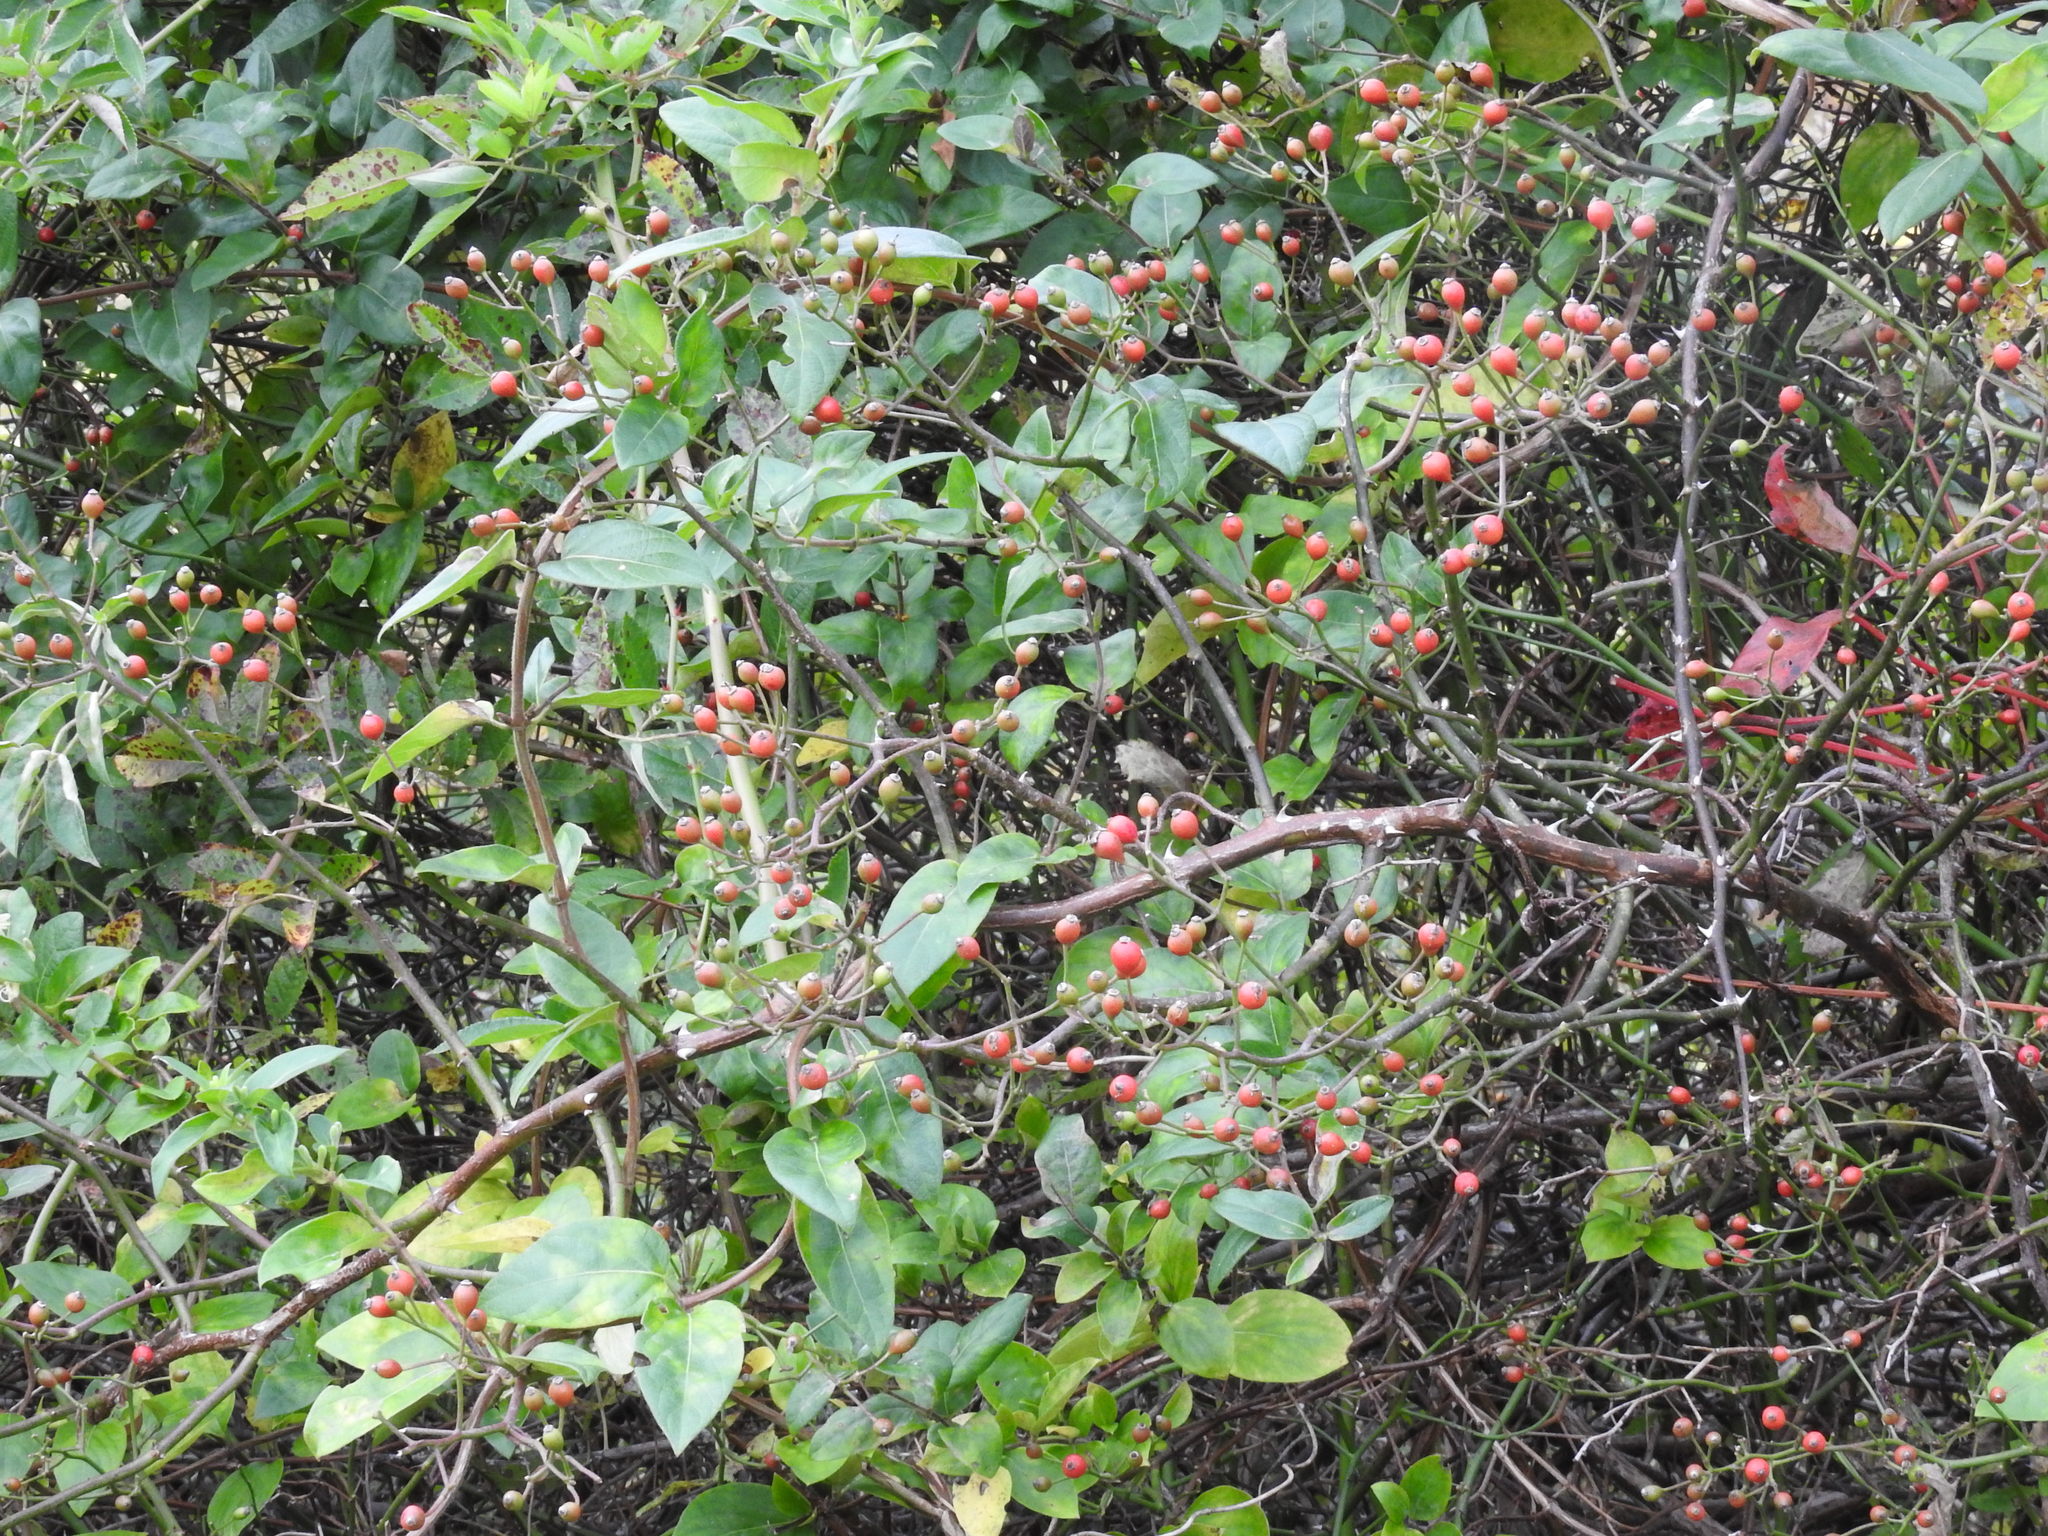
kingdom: Plantae
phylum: Tracheophyta
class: Magnoliopsida
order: Rosales
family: Rosaceae
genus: Rosa
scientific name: Rosa multiflora
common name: Multiflora rose
